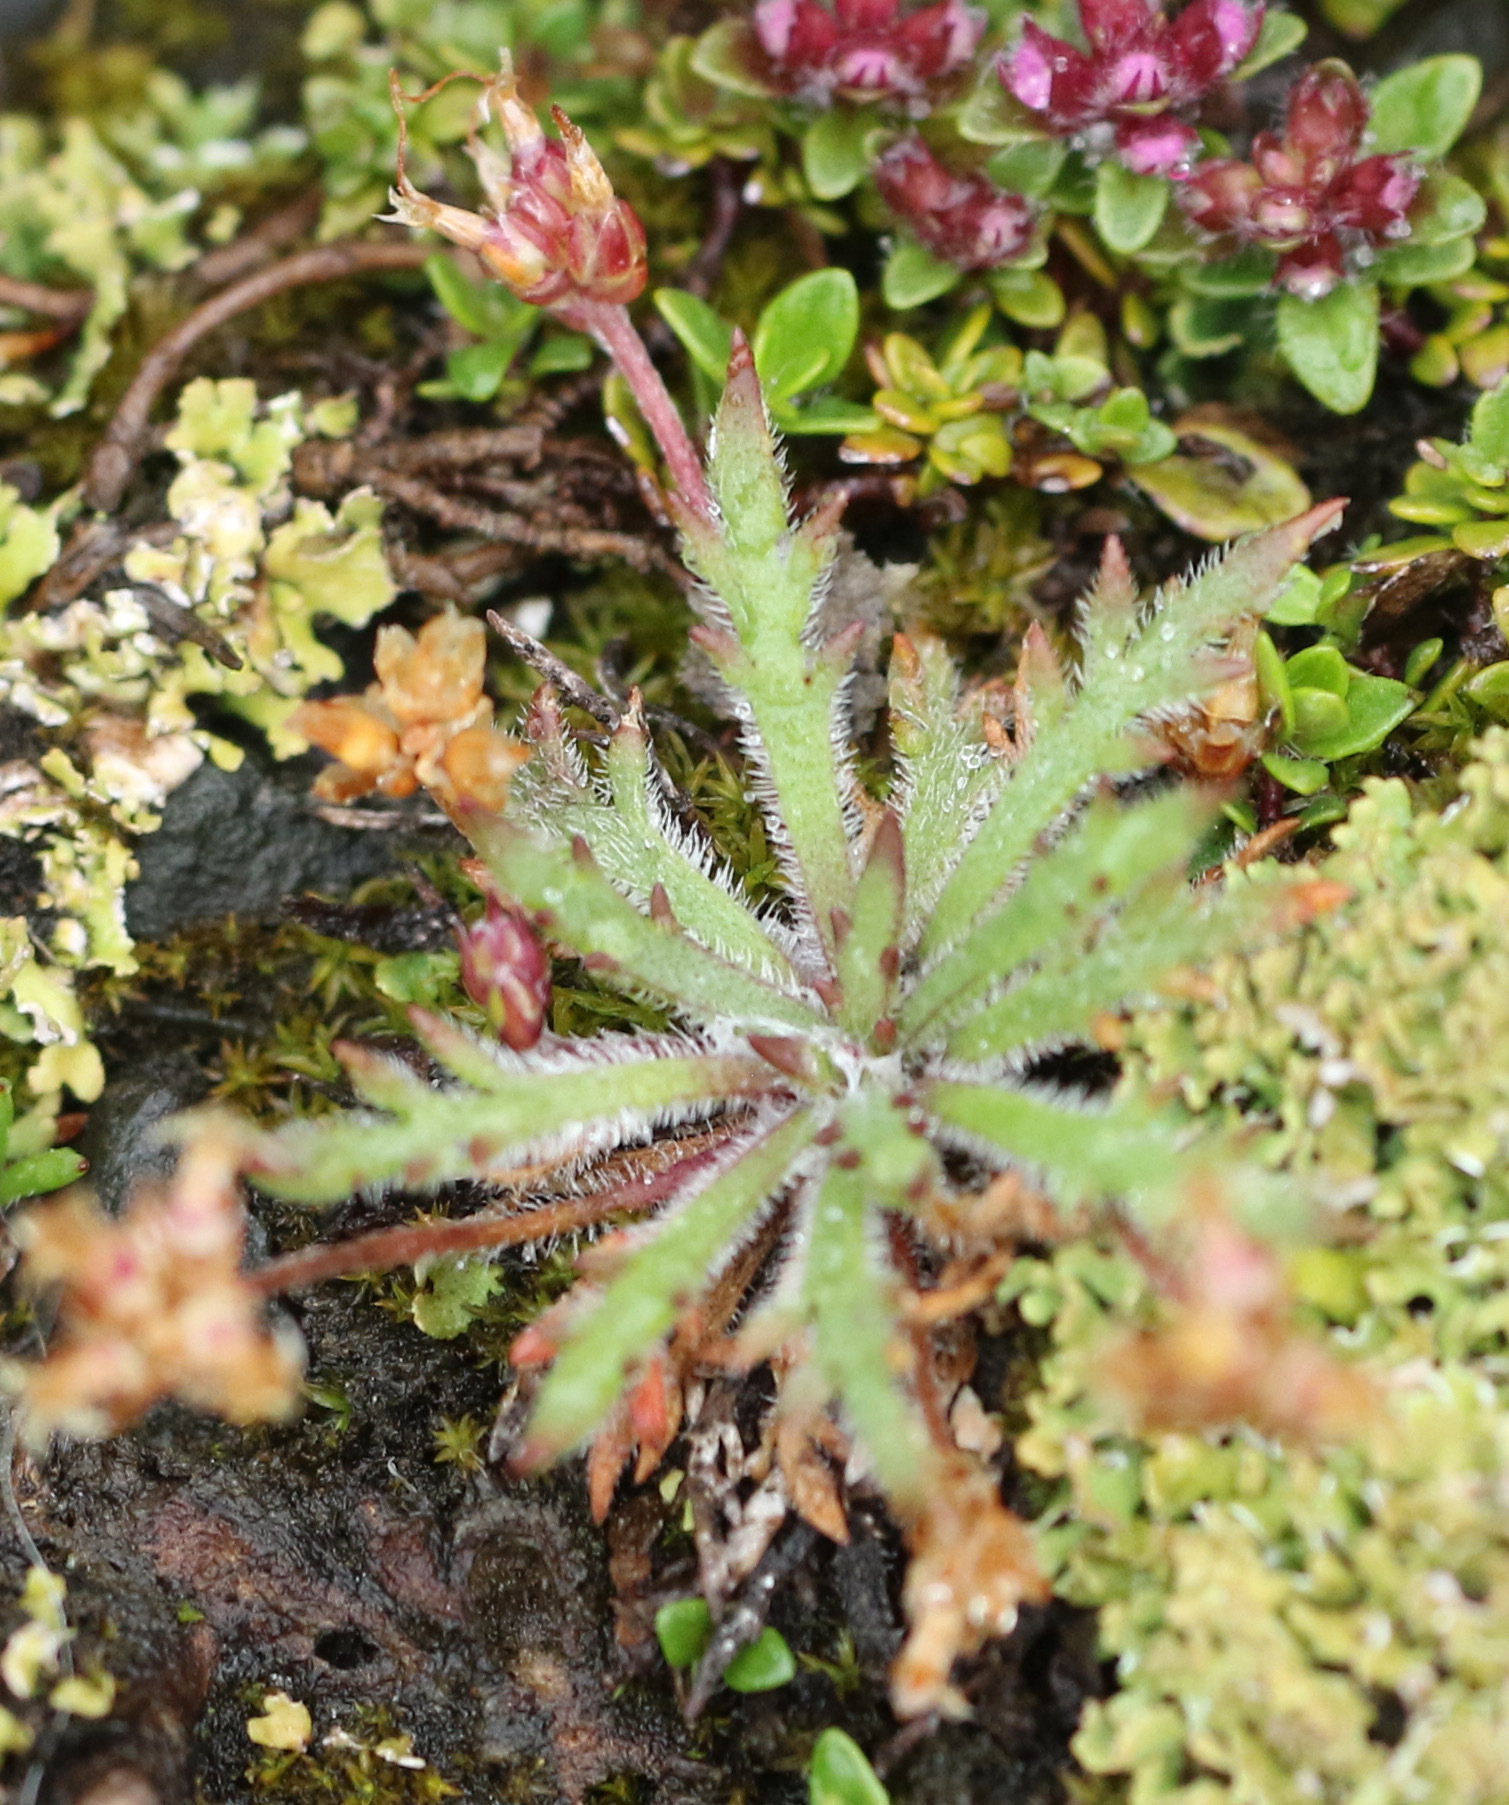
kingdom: Plantae
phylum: Tracheophyta
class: Magnoliopsida
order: Lamiales
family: Plantaginaceae
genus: Plantago
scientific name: Plantago coronopus
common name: Buck's-horn plantain
